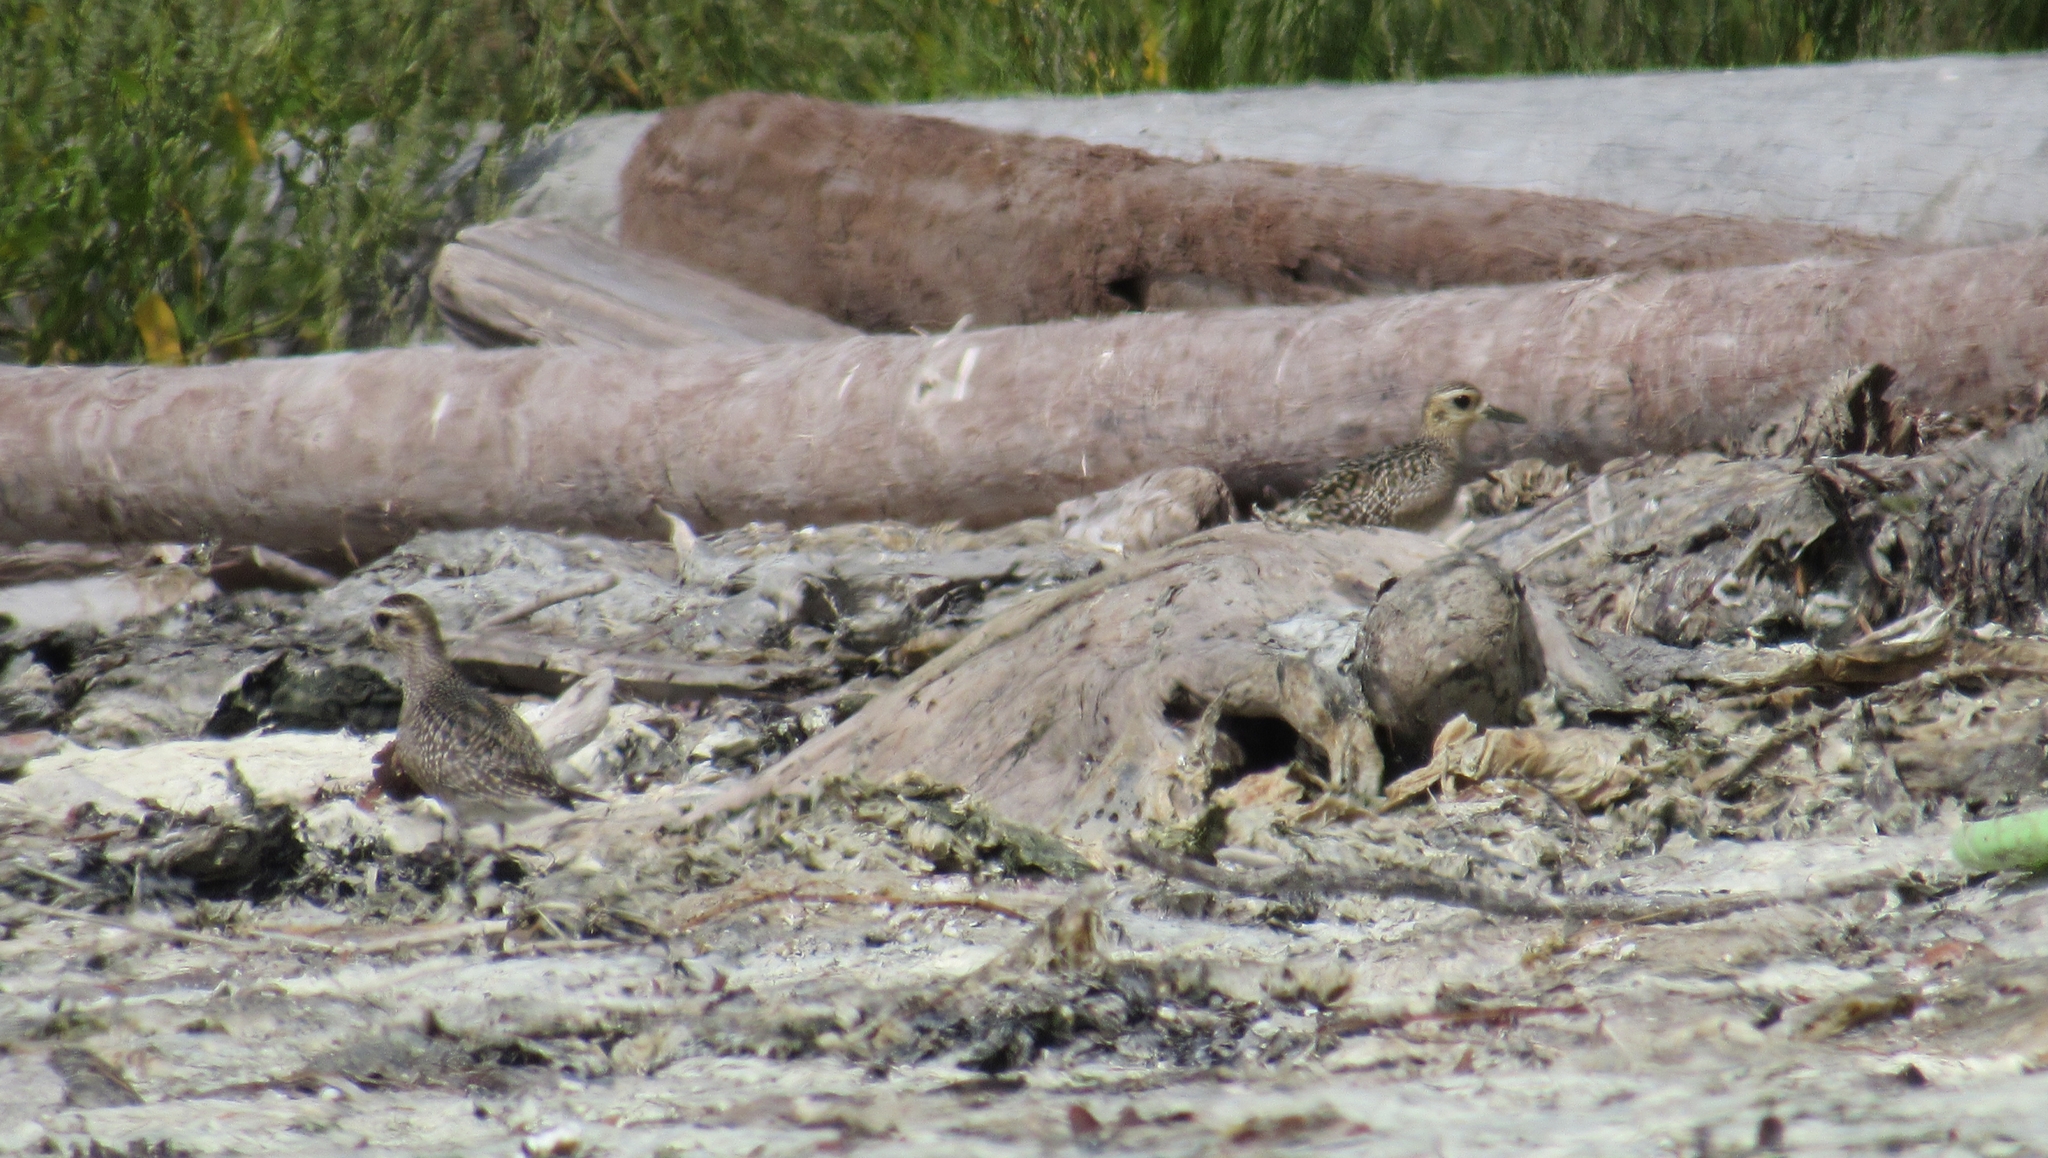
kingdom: Animalia
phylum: Chordata
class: Aves
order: Charadriiformes
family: Charadriidae
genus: Pluvialis
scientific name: Pluvialis dominica
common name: American golden plover
